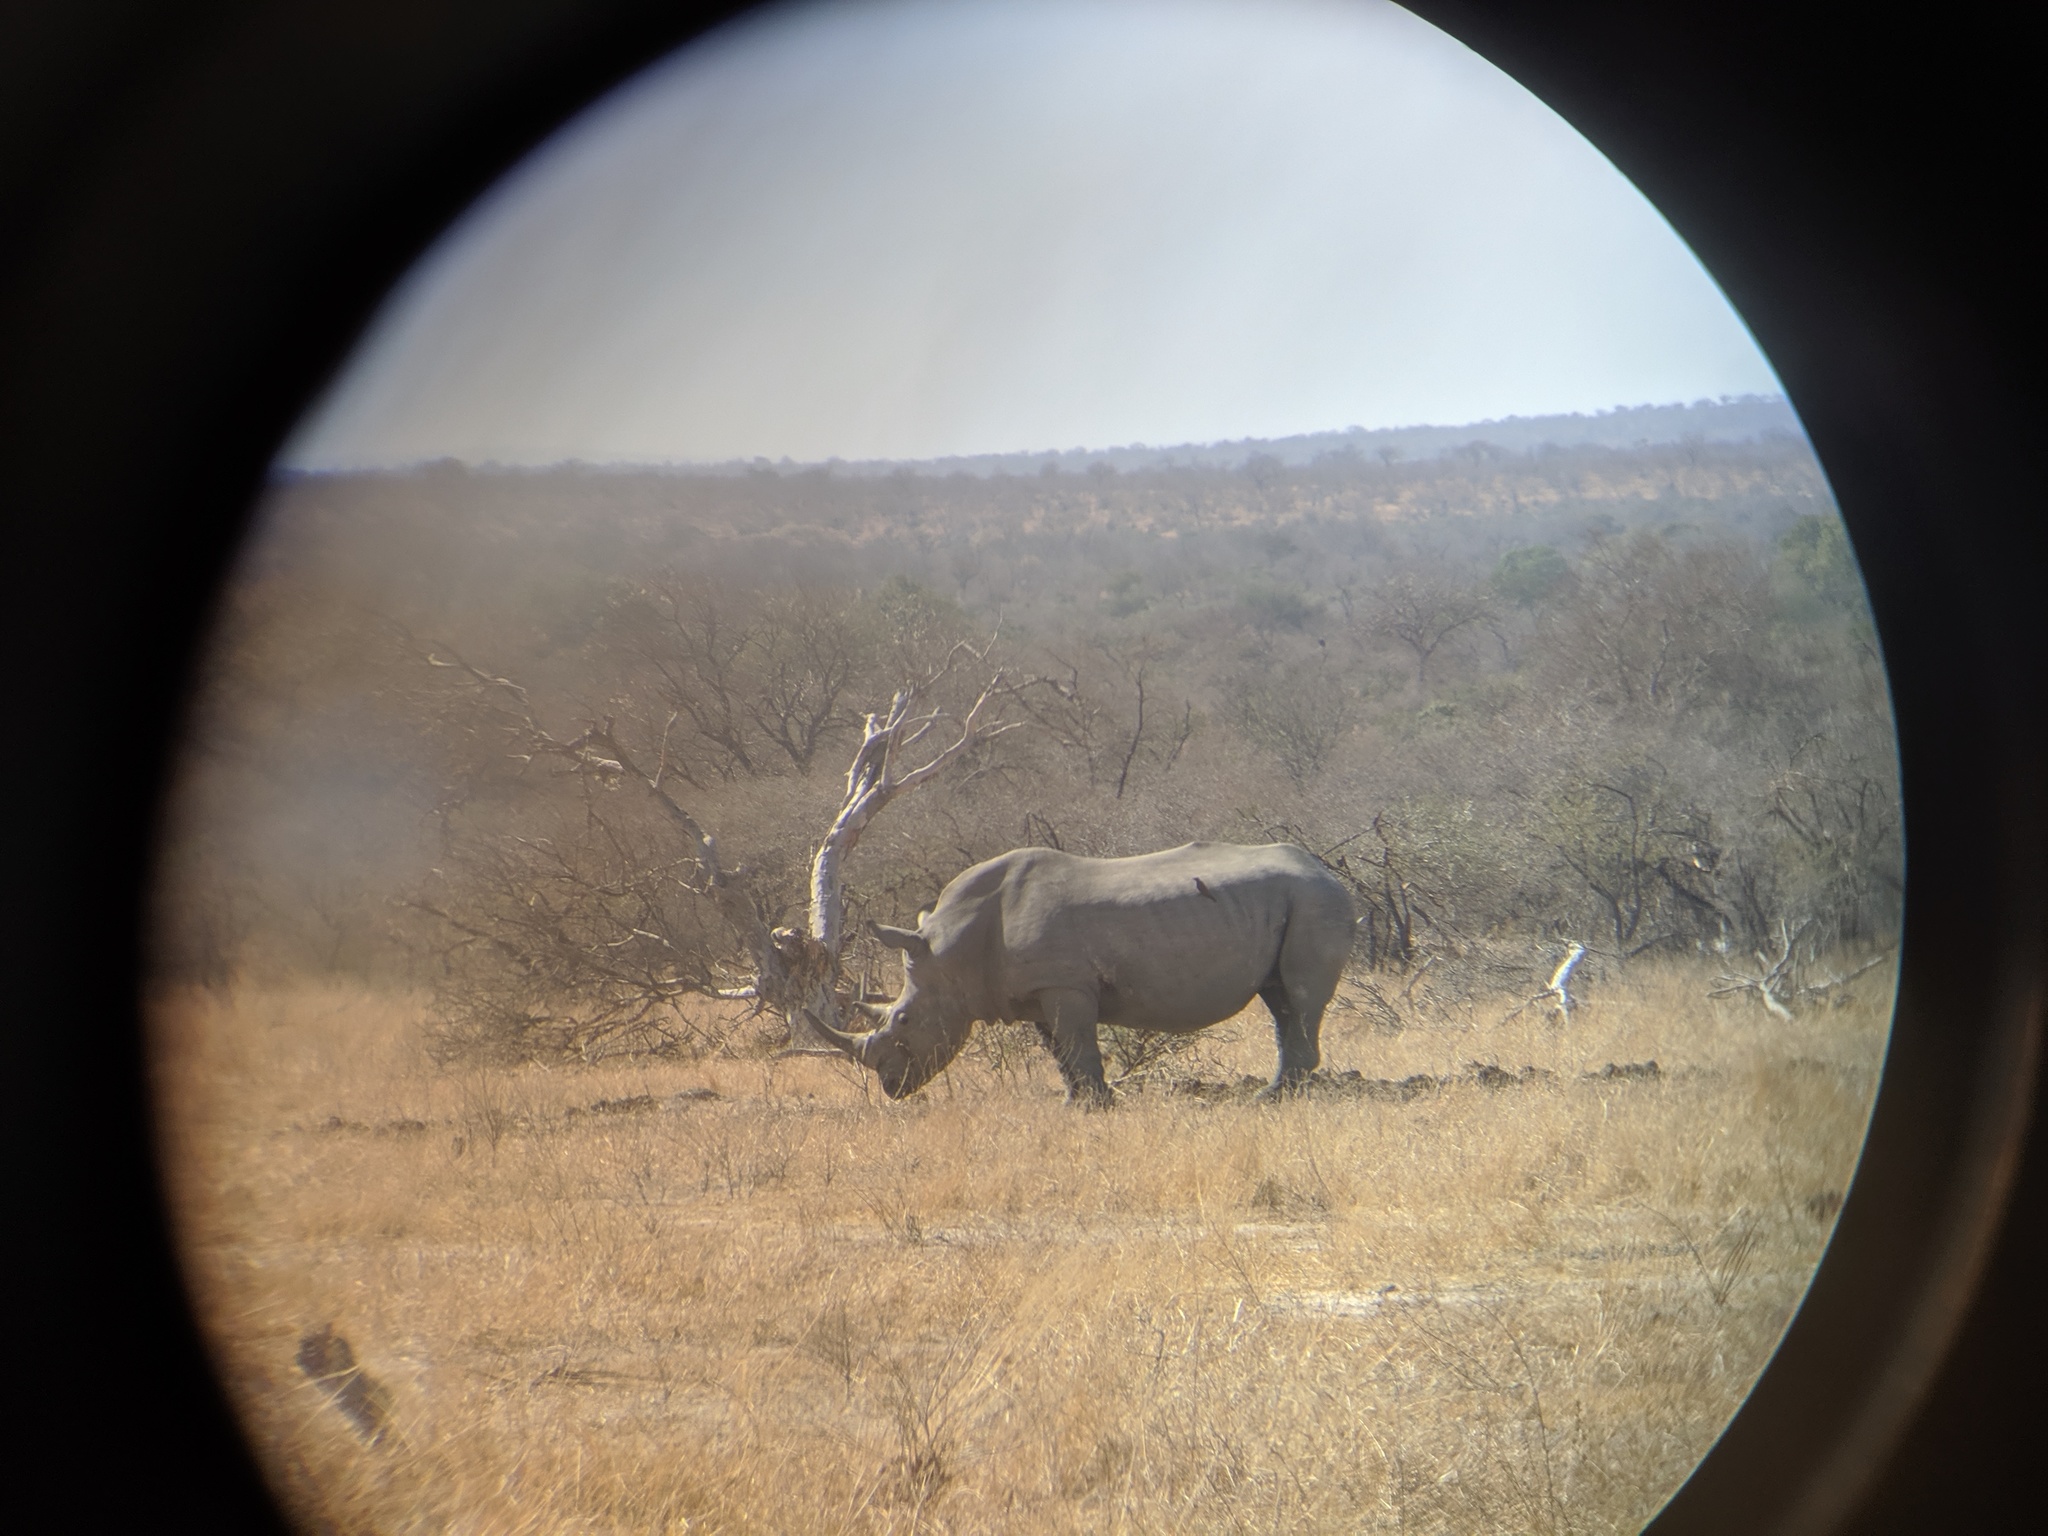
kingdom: Animalia
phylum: Chordata
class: Mammalia
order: Perissodactyla
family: Rhinocerotidae
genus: Ceratotherium
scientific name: Ceratotherium simum
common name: White rhinoceros
